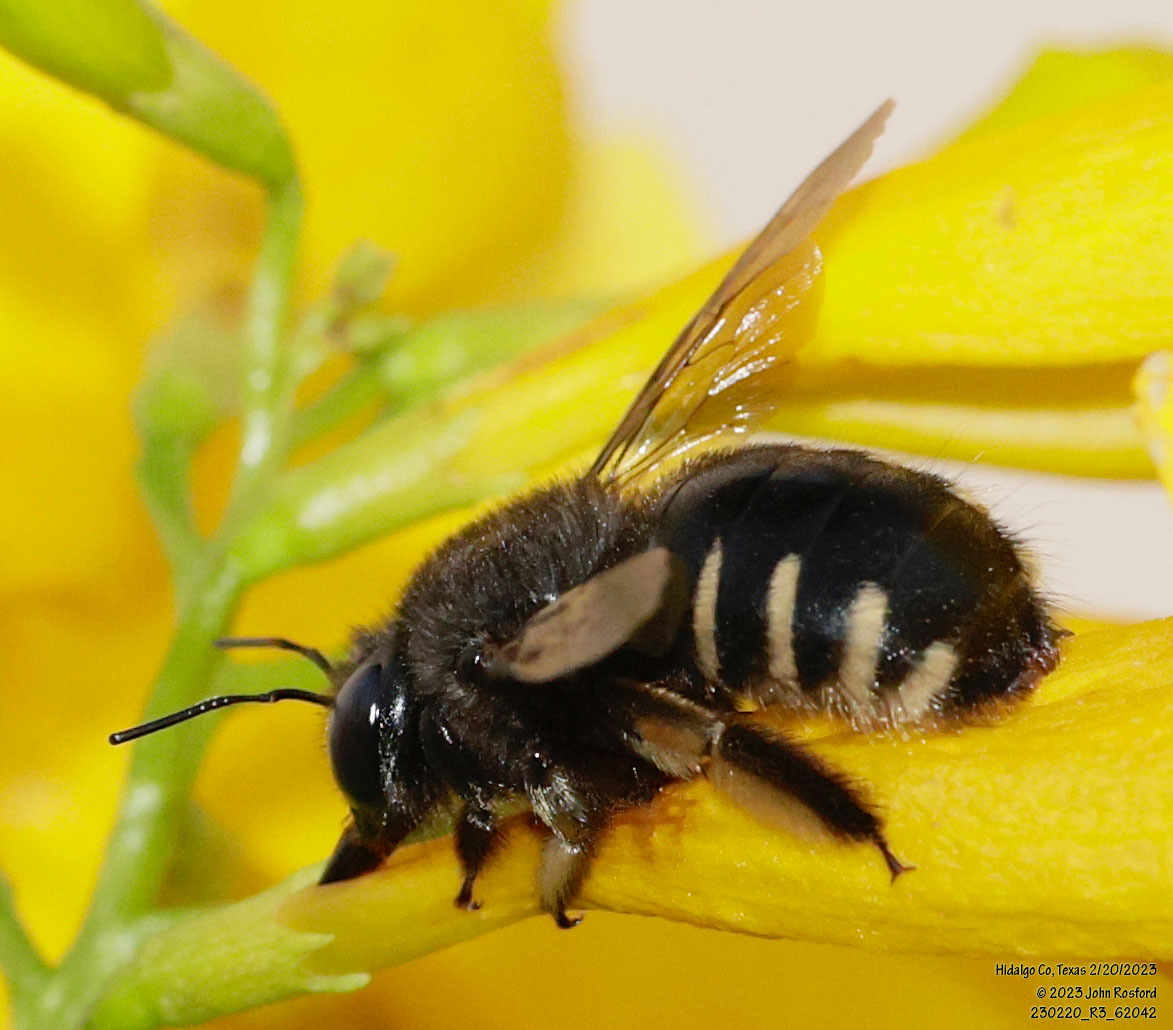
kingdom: Animalia
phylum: Arthropoda
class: Insecta
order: Hymenoptera
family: Apidae
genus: Xylocopa
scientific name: Xylocopa tabaniformis
